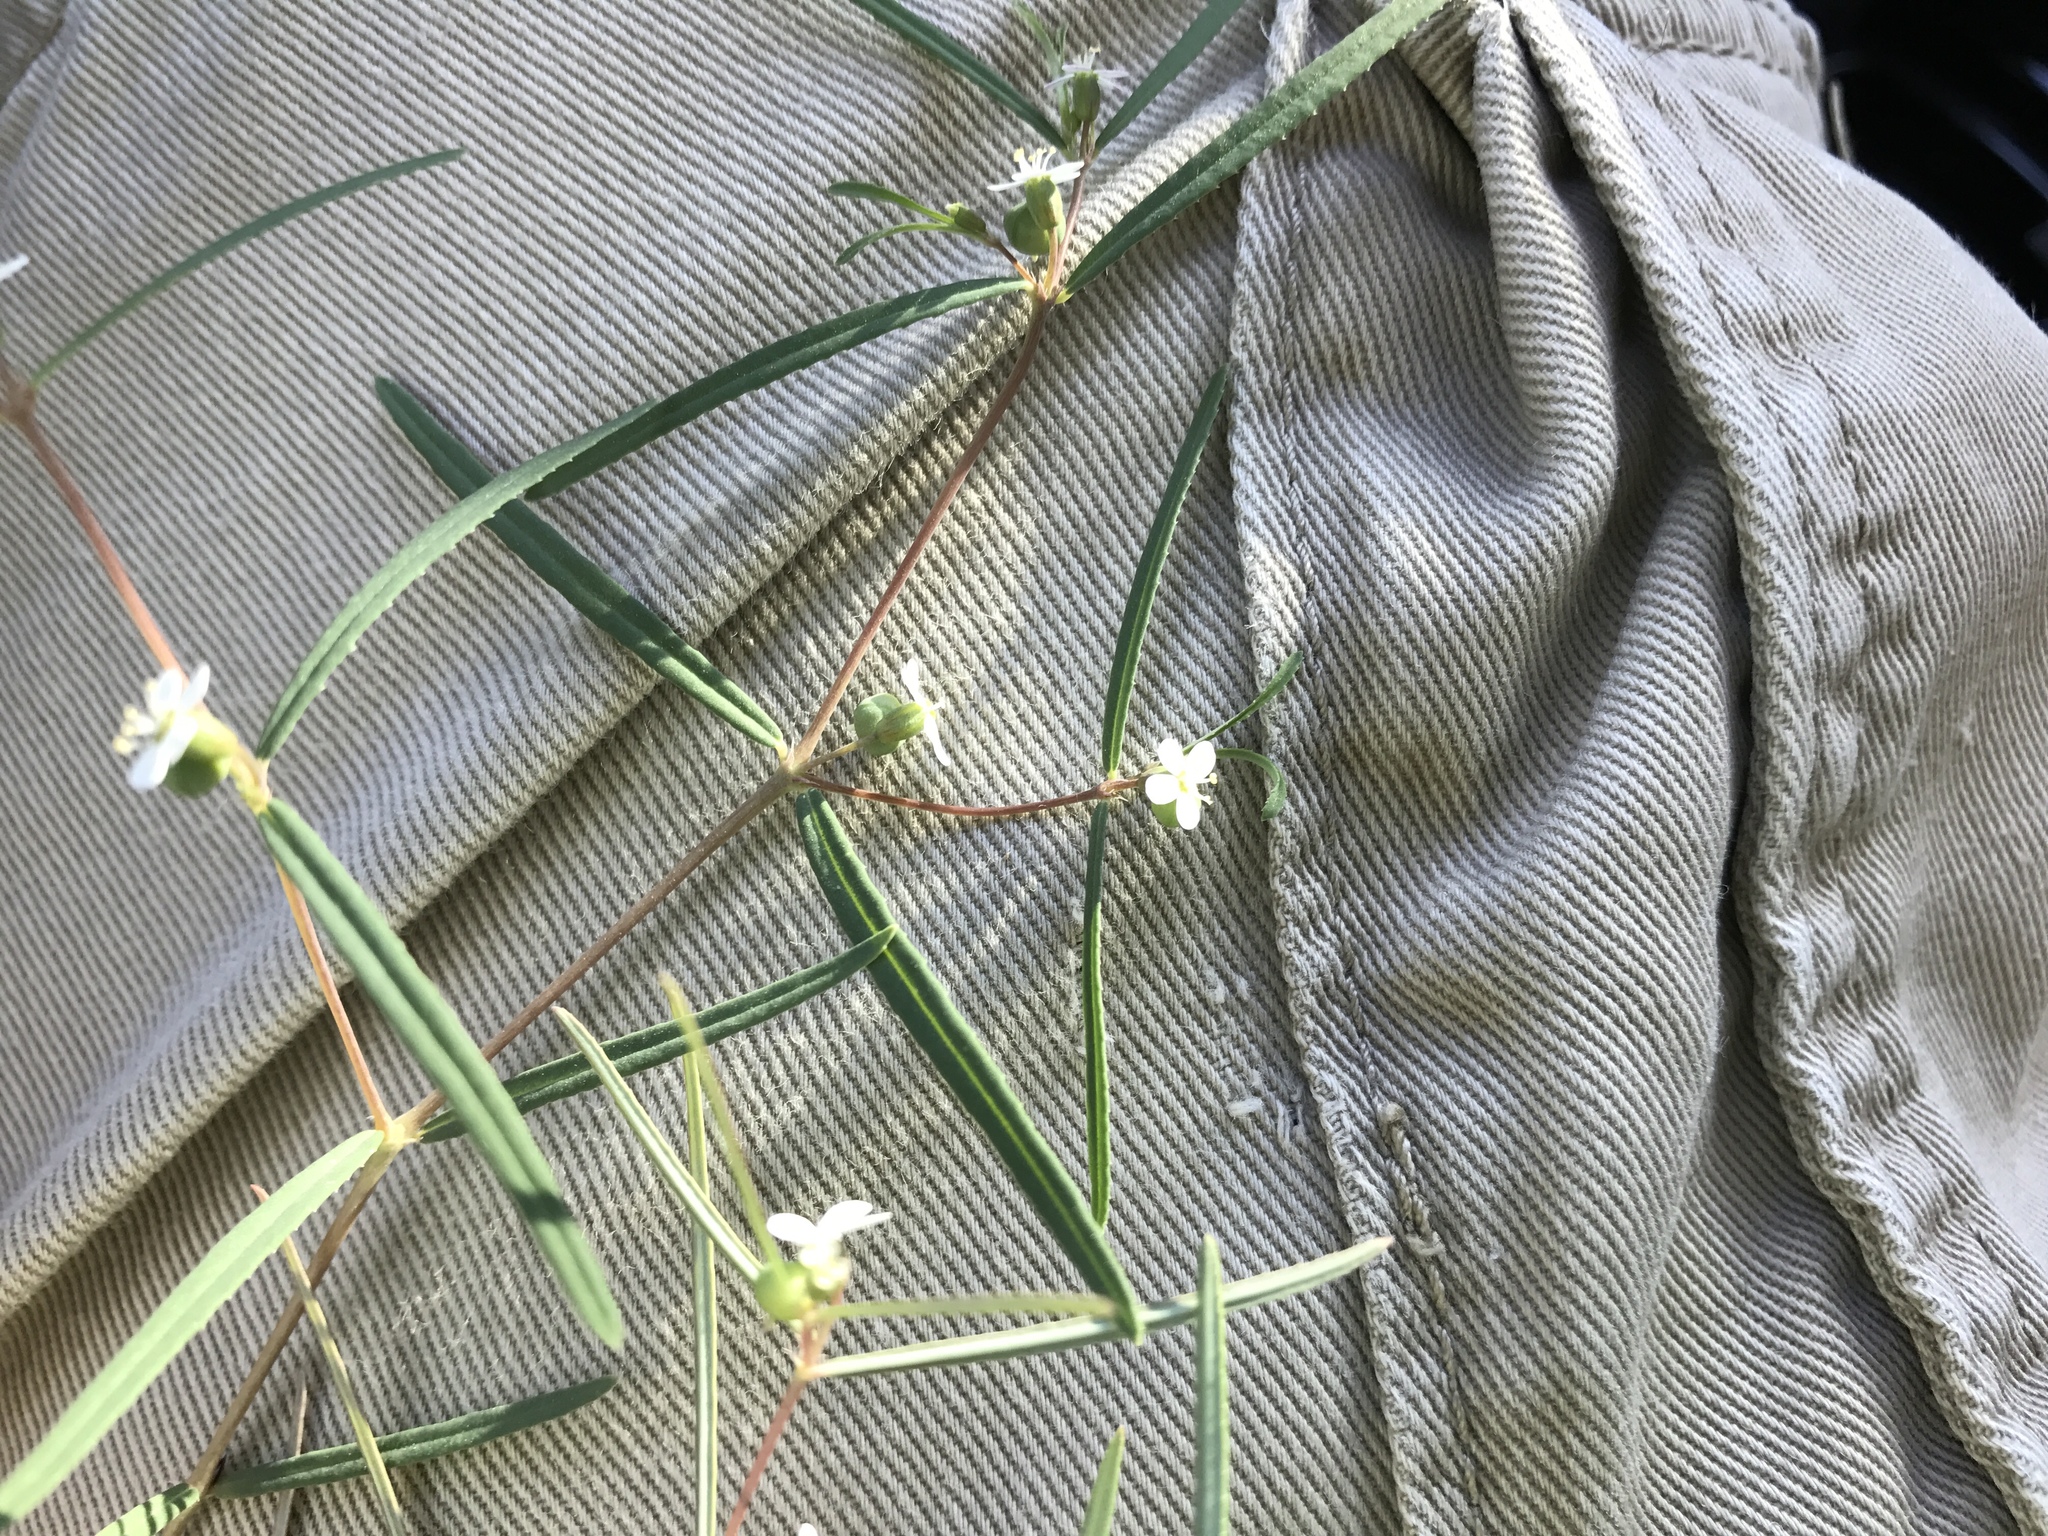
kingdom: Plantae
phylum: Tracheophyta
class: Magnoliopsida
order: Malpighiales
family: Euphorbiaceae
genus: Euphorbia
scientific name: Euphorbia florida
